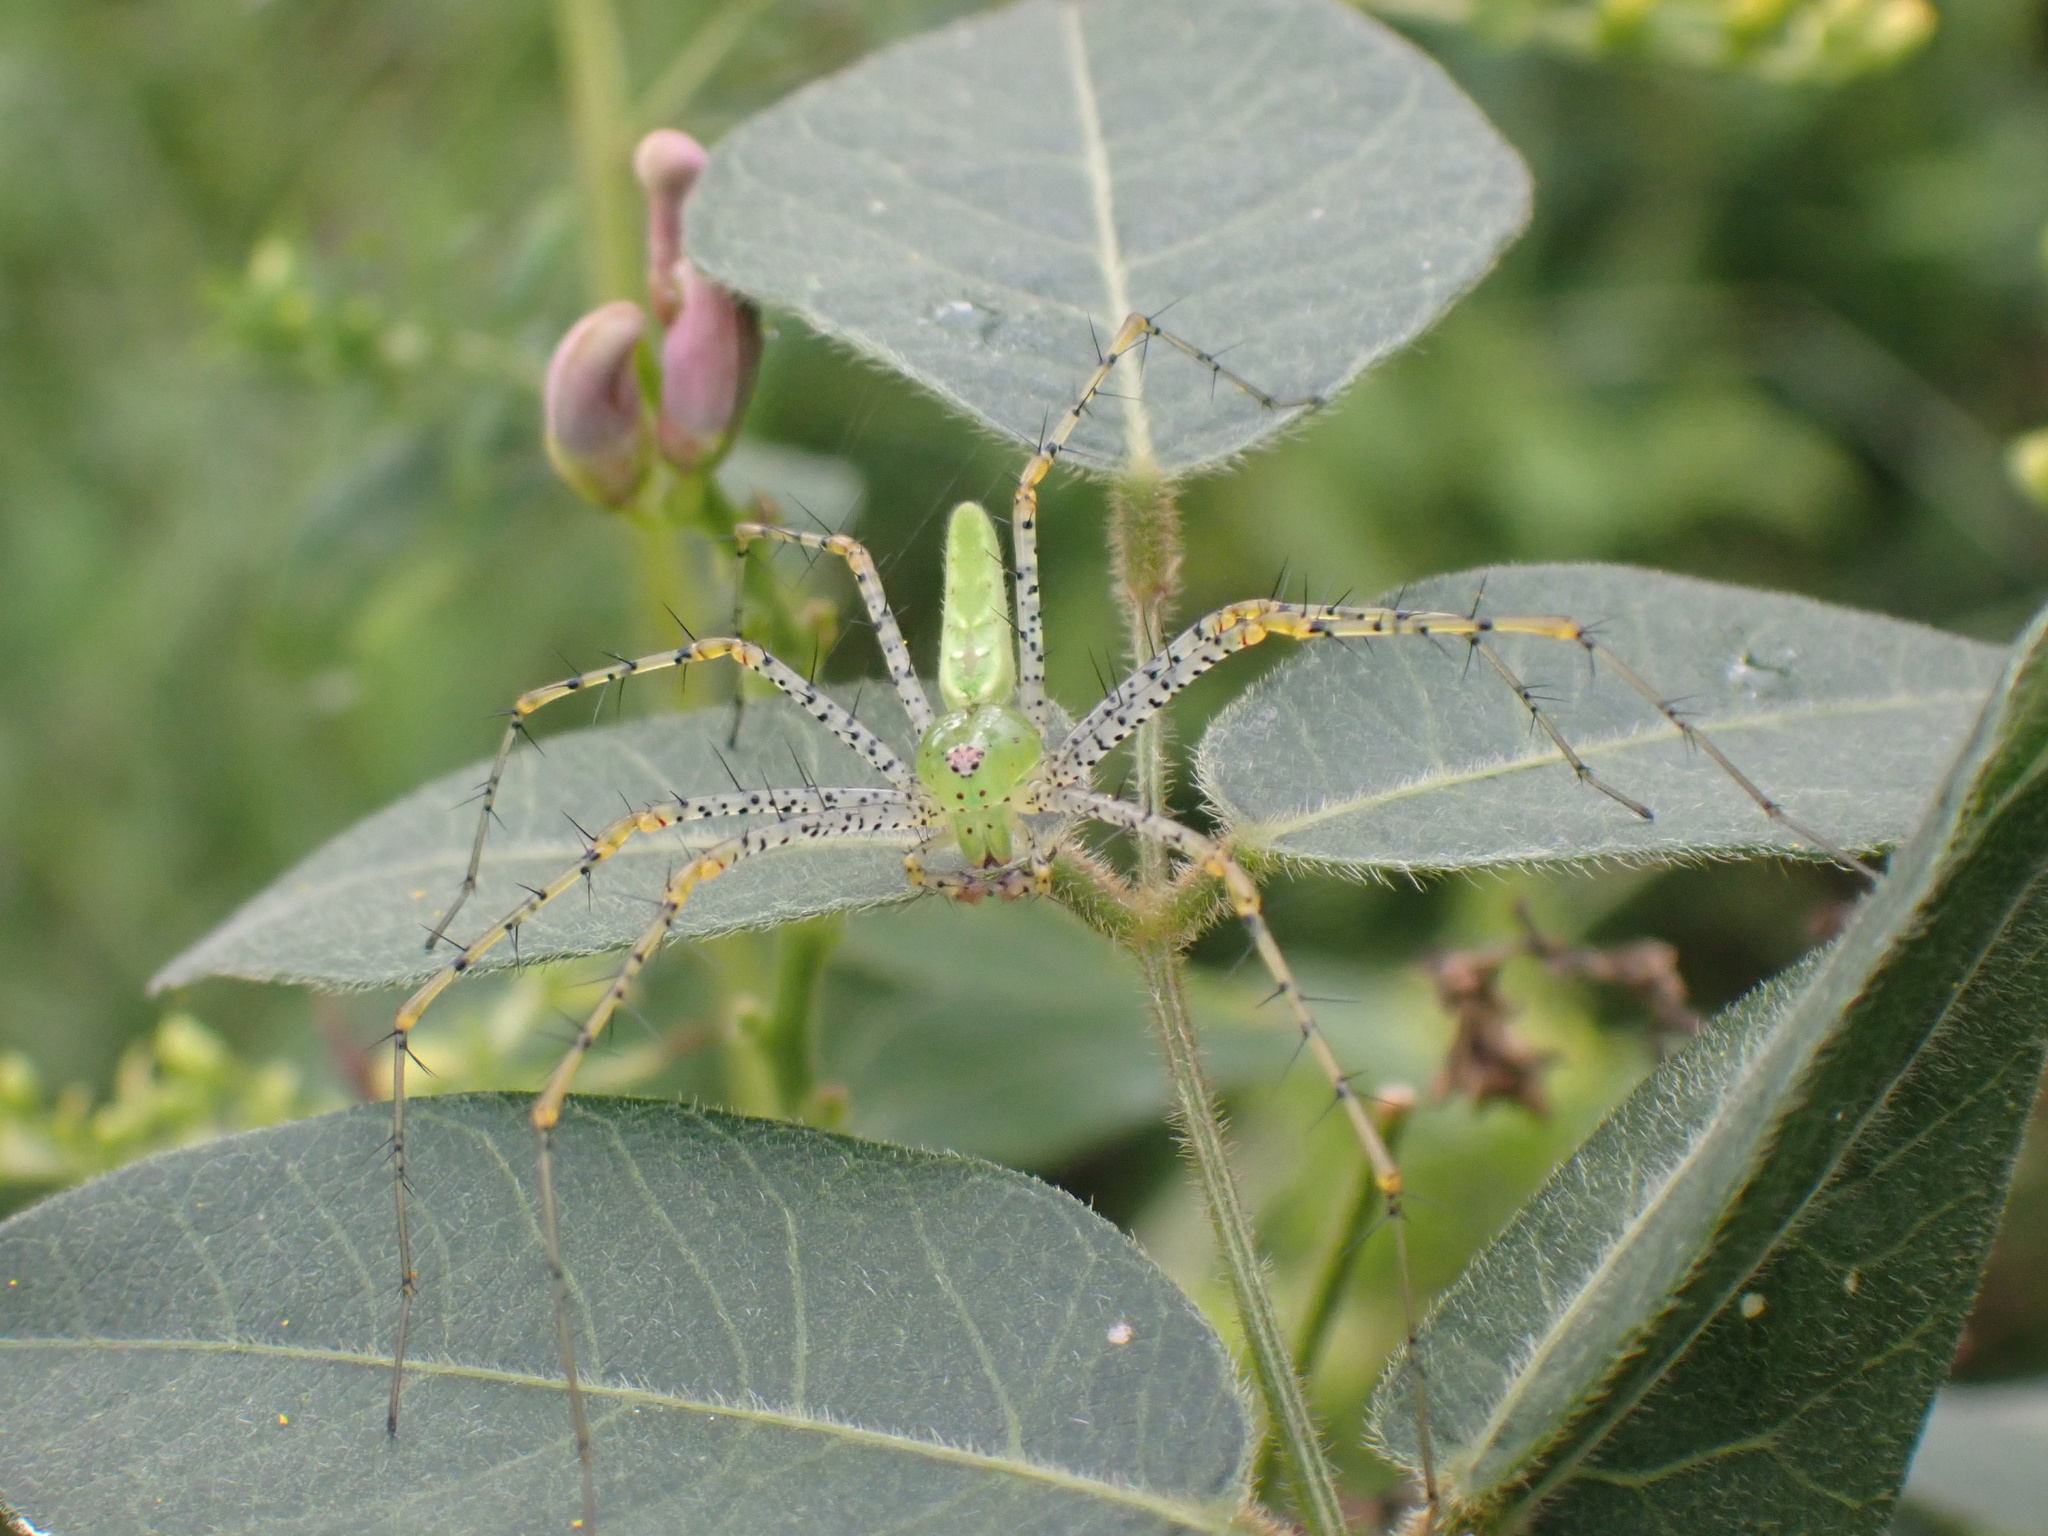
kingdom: Animalia
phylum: Arthropoda
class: Arachnida
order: Araneae
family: Oxyopidae
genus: Peucetia
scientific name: Peucetia viridans
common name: Lynx spiders
